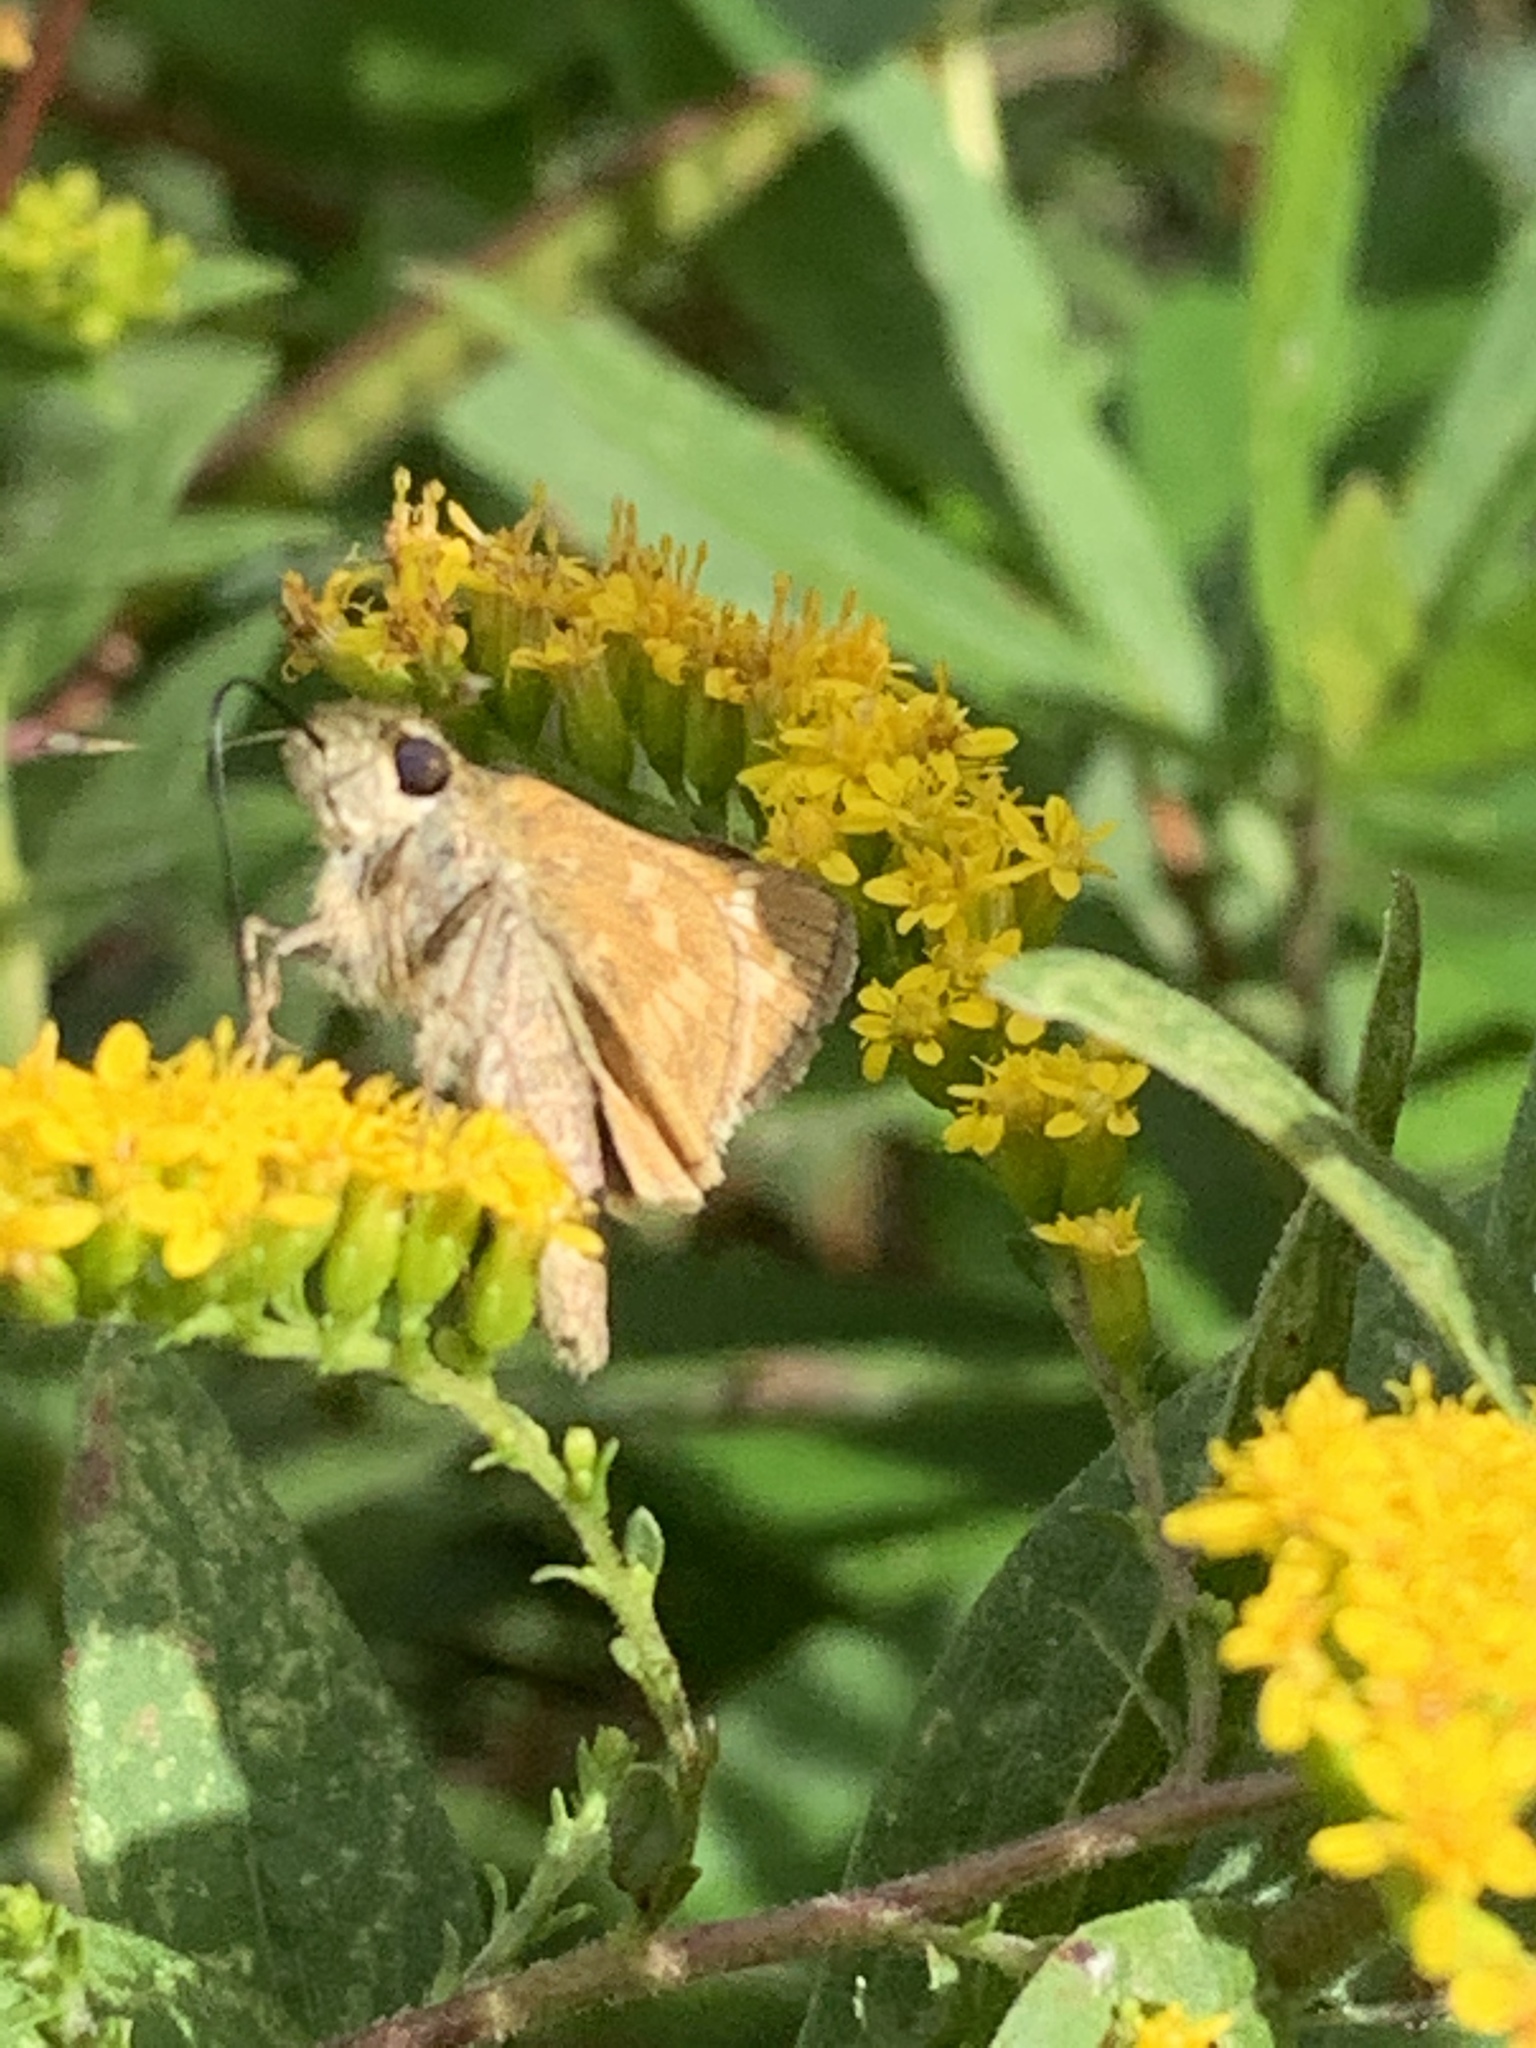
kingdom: Animalia
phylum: Arthropoda
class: Insecta
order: Lepidoptera
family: Hesperiidae
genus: Atalopedes
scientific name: Atalopedes
